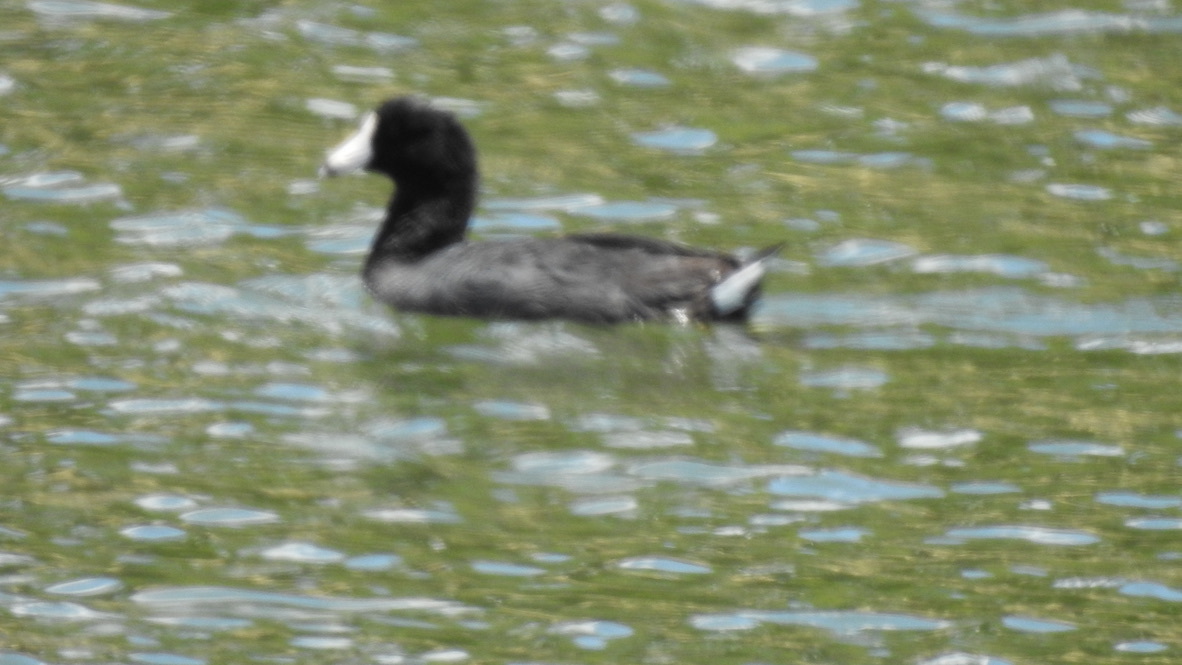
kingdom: Animalia
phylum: Chordata
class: Aves
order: Gruiformes
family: Rallidae
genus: Fulica
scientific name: Fulica americana
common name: American coot
